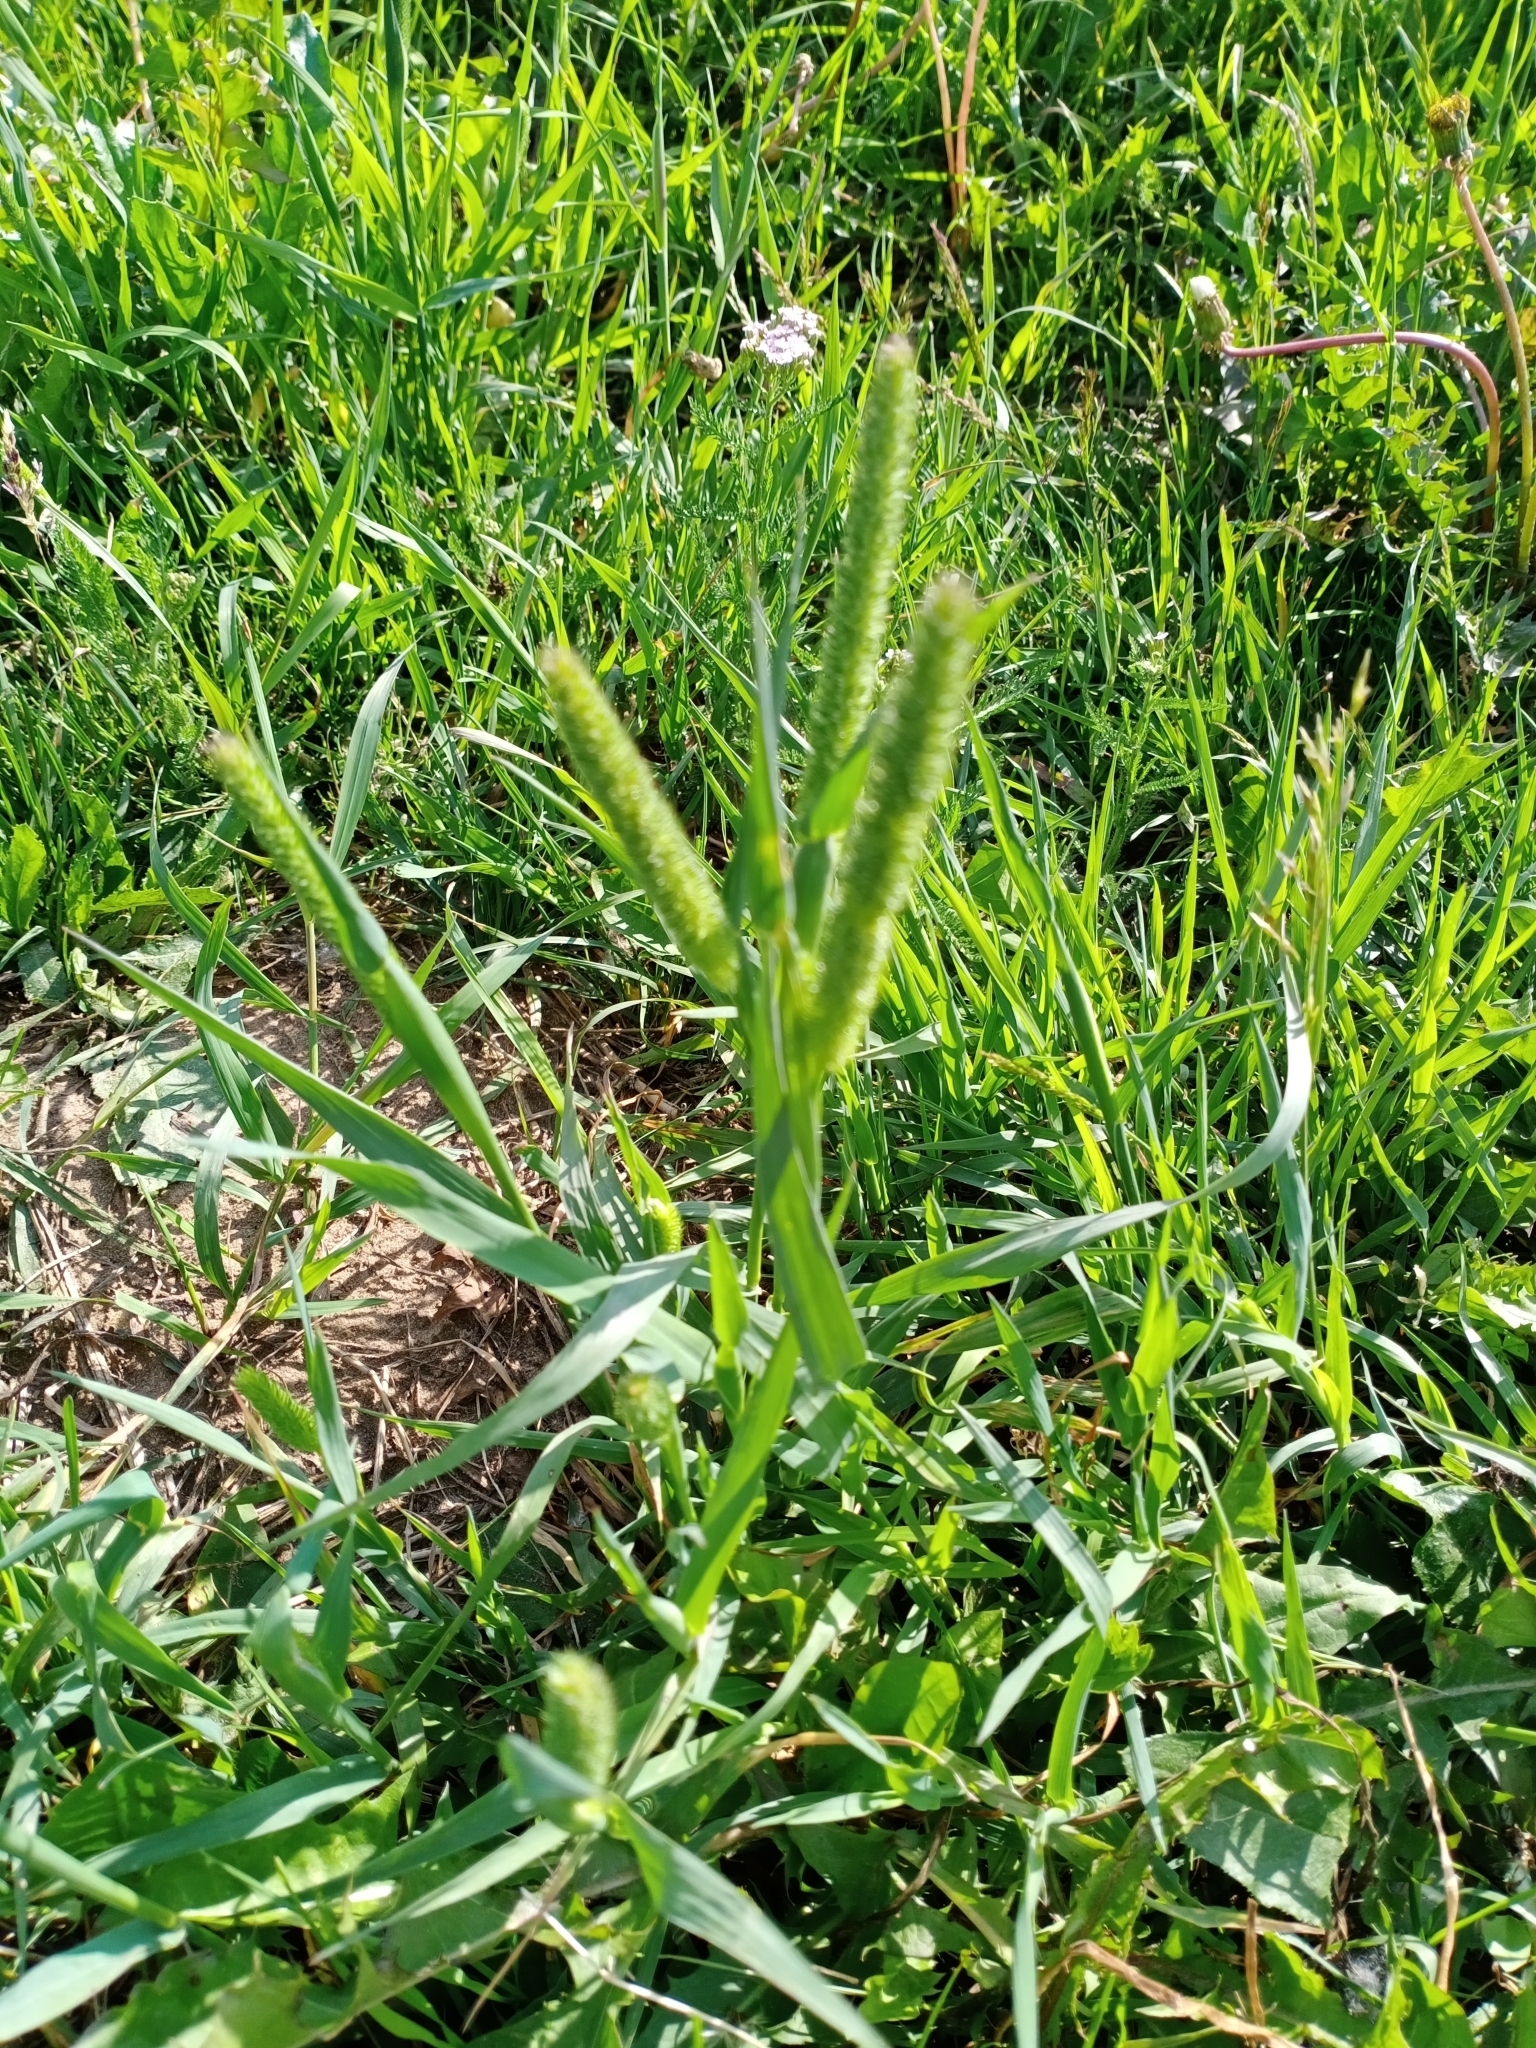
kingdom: Plantae
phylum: Tracheophyta
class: Liliopsida
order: Poales
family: Poaceae
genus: Phleum
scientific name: Phleum pratense
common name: Timothy grass
